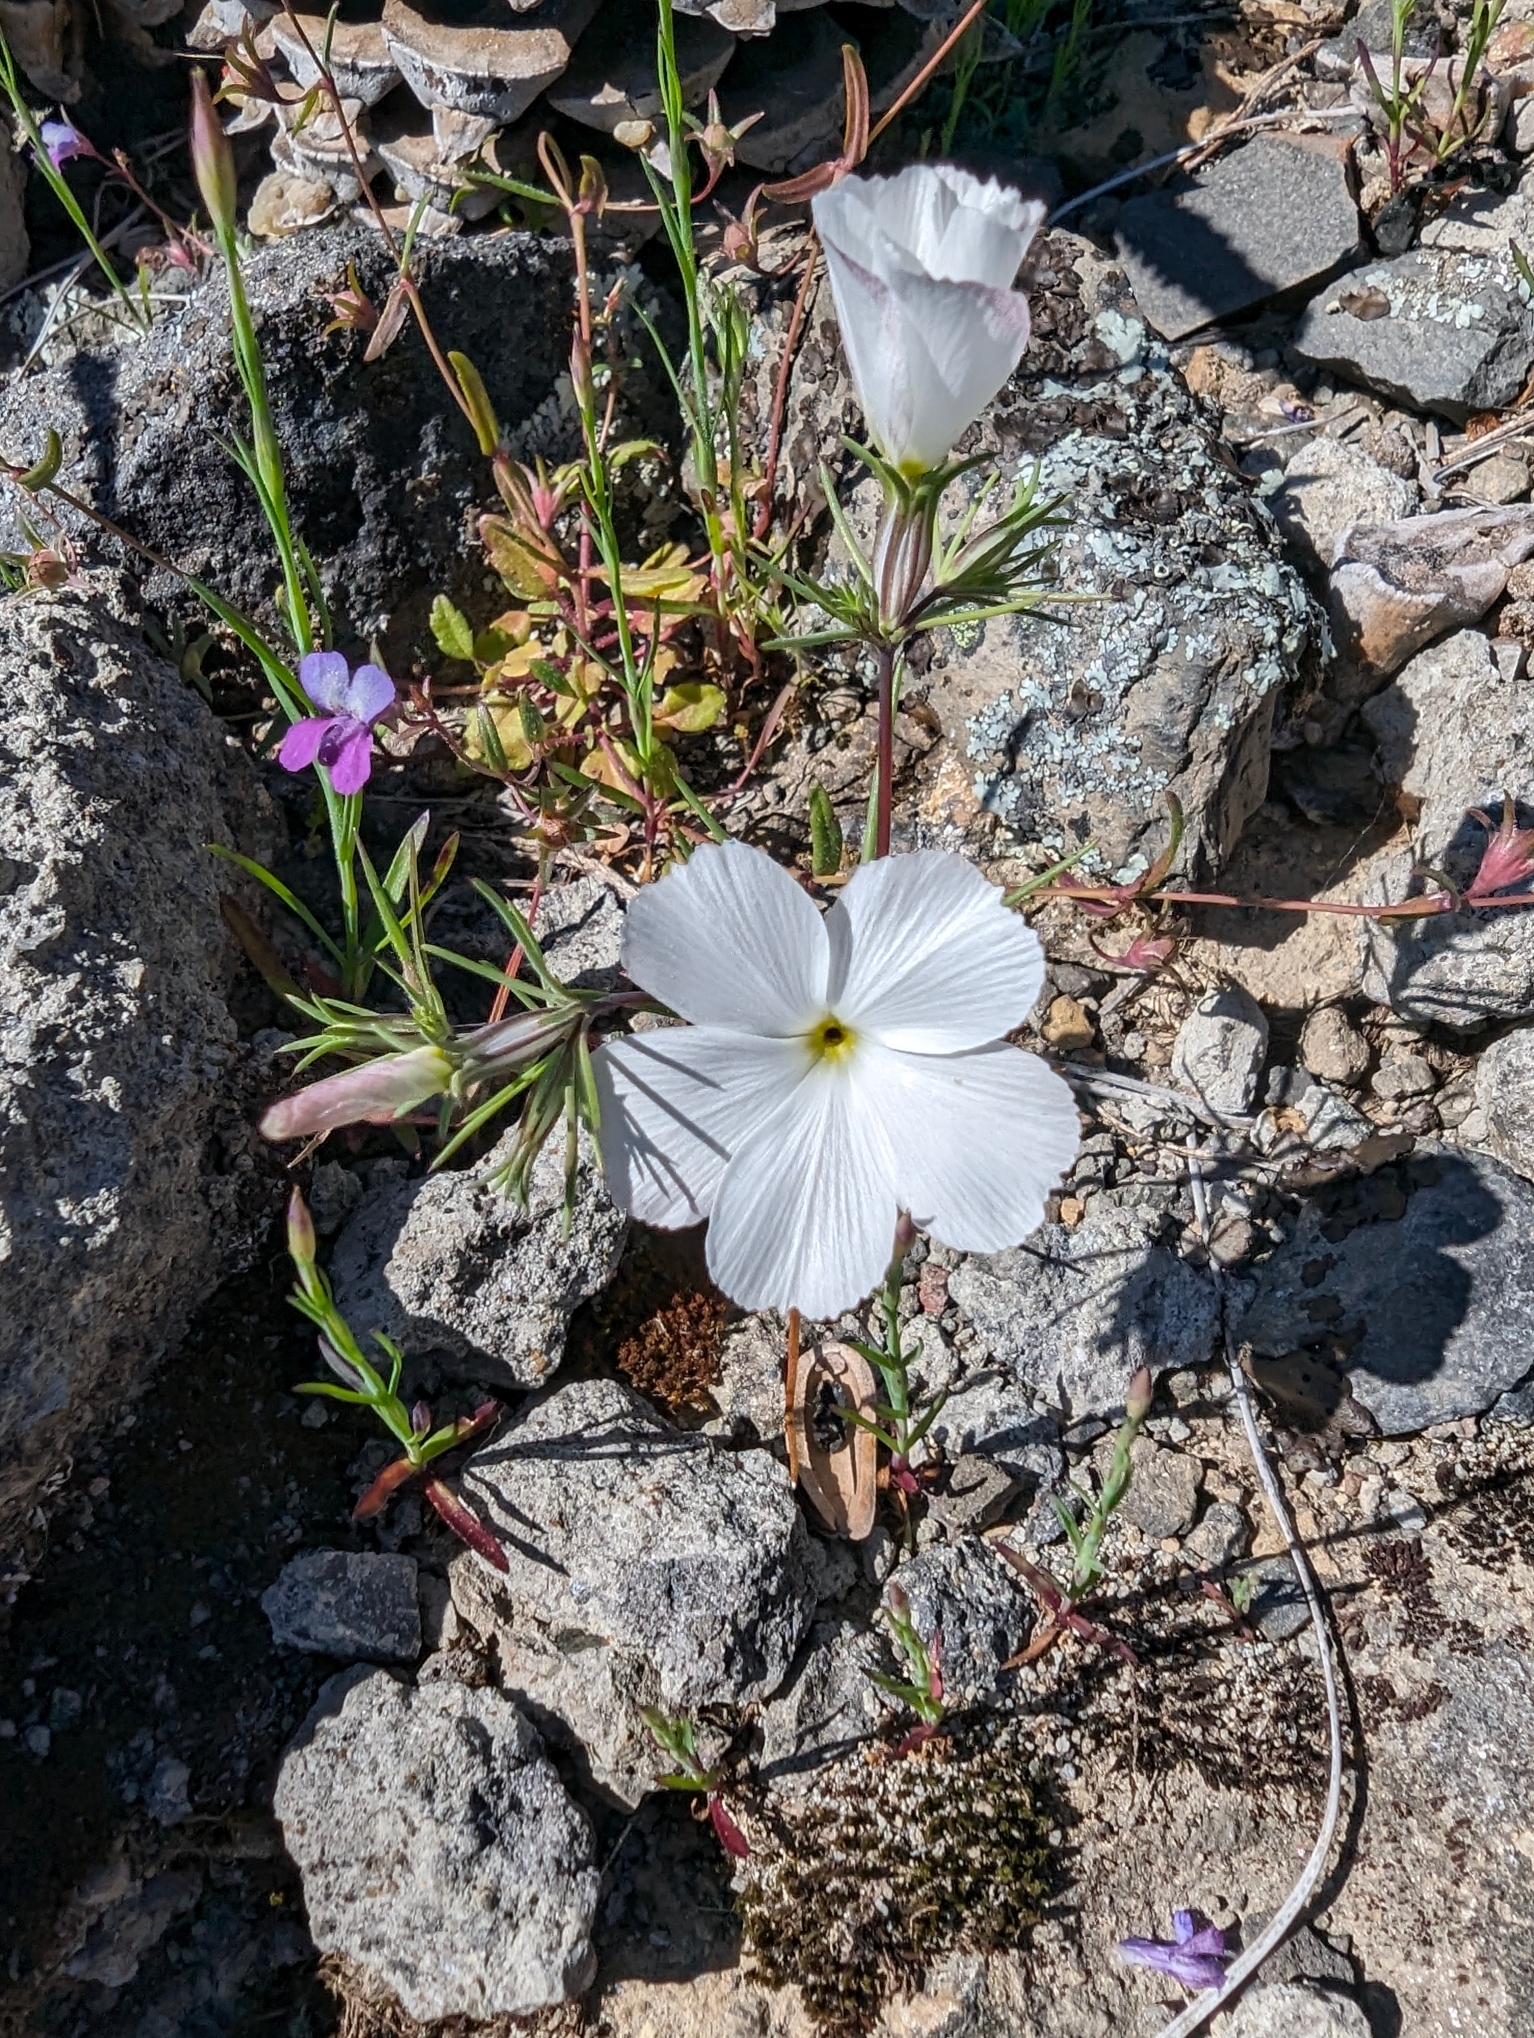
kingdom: Plantae
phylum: Tracheophyta
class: Magnoliopsida
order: Ericales
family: Polemoniaceae
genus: Linanthus
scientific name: Linanthus dichotomus
